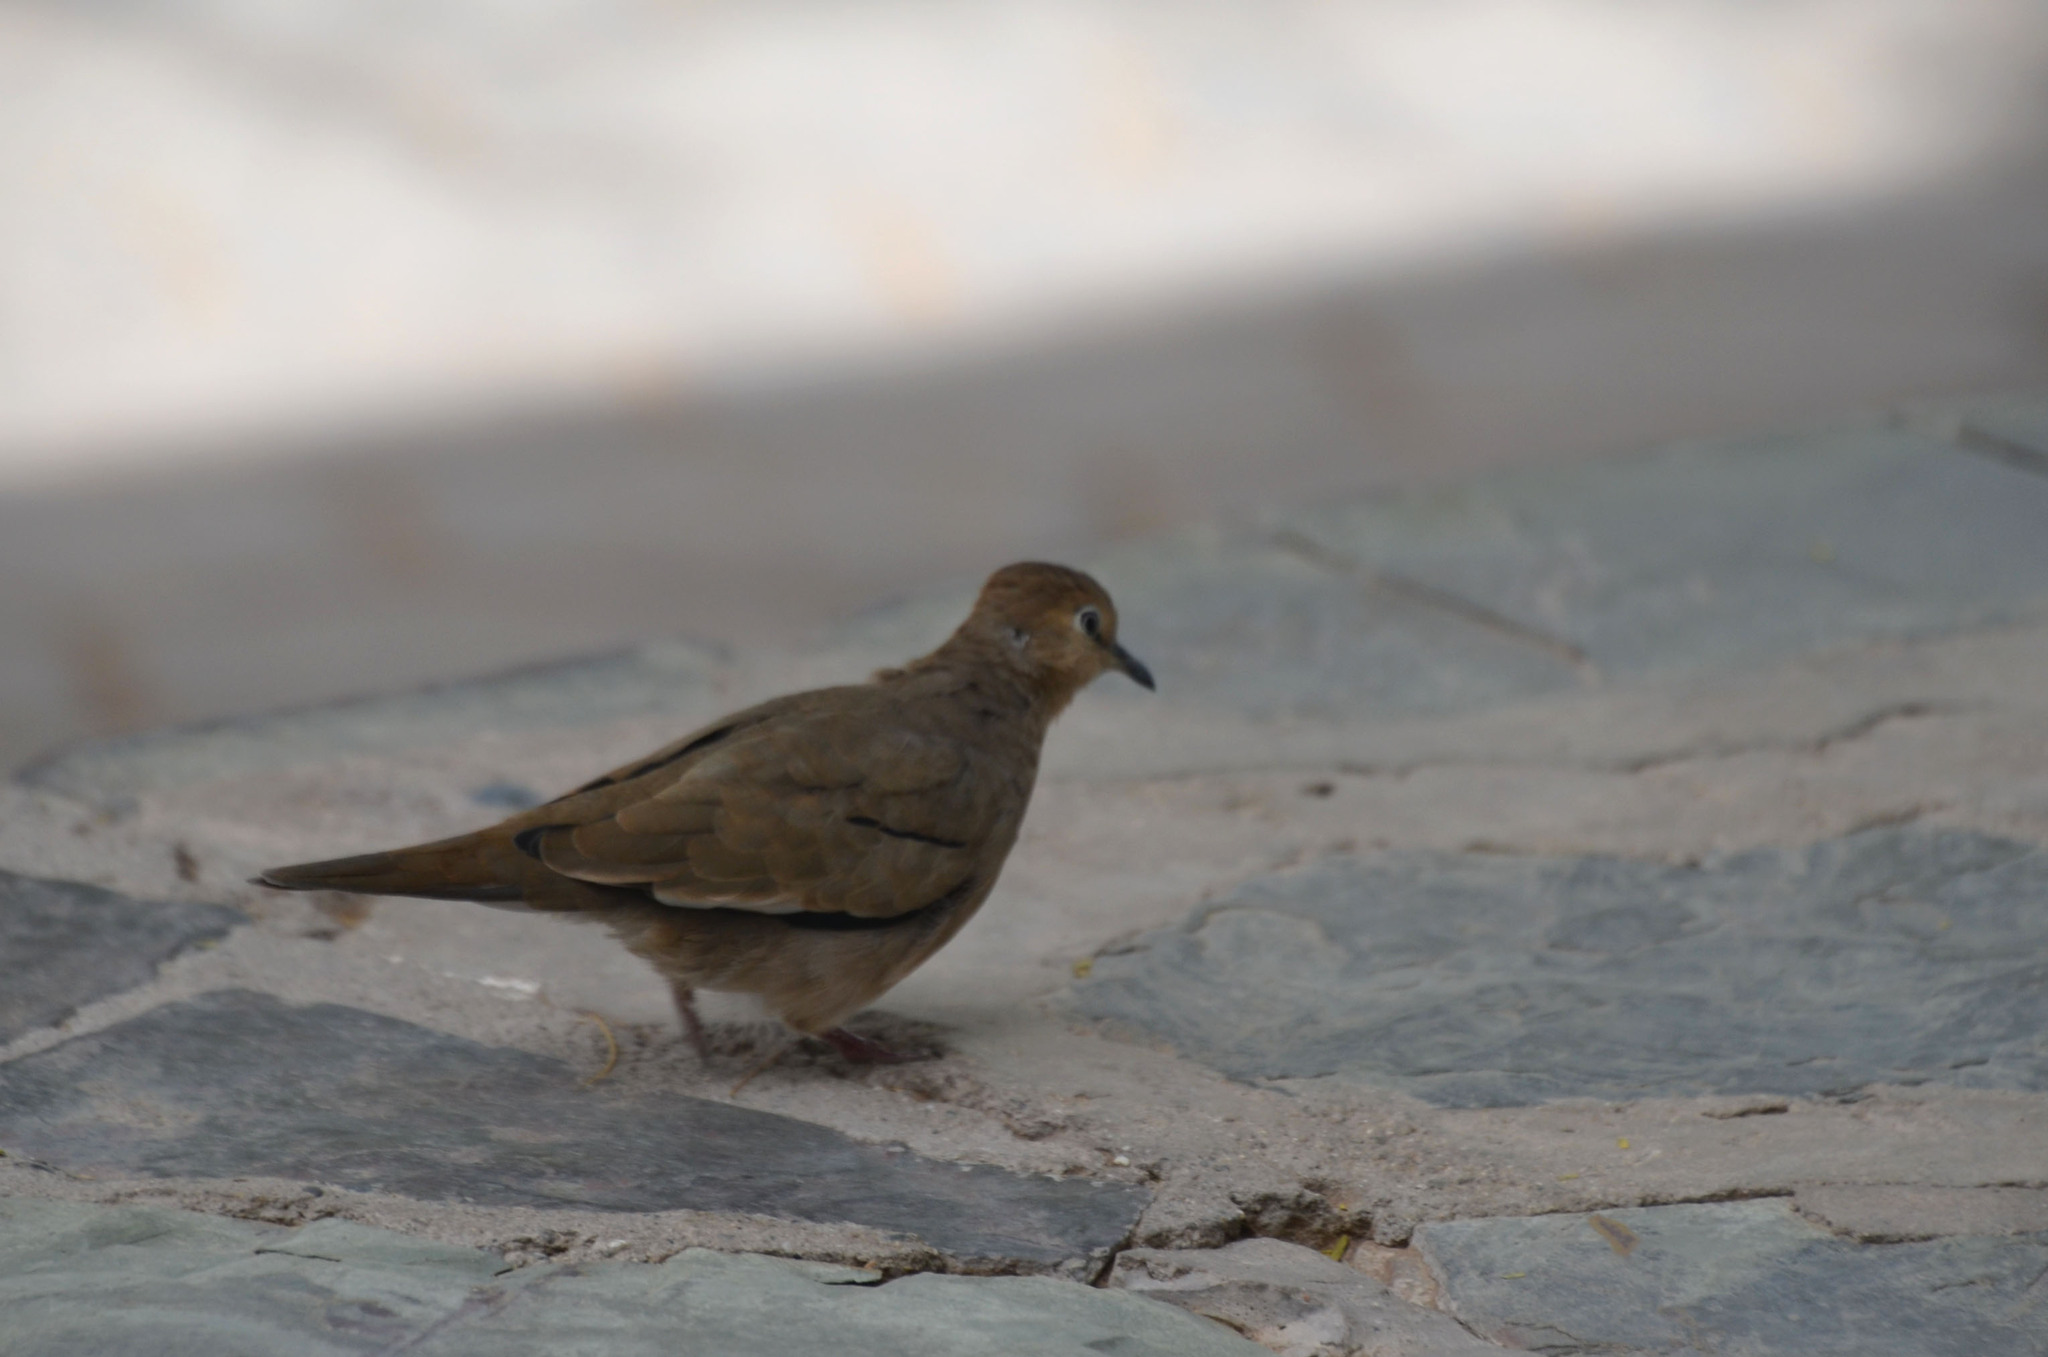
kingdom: Animalia
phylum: Chordata
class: Aves
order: Columbiformes
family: Columbidae
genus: Columbina
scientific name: Columbina picui
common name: Picui ground dove
